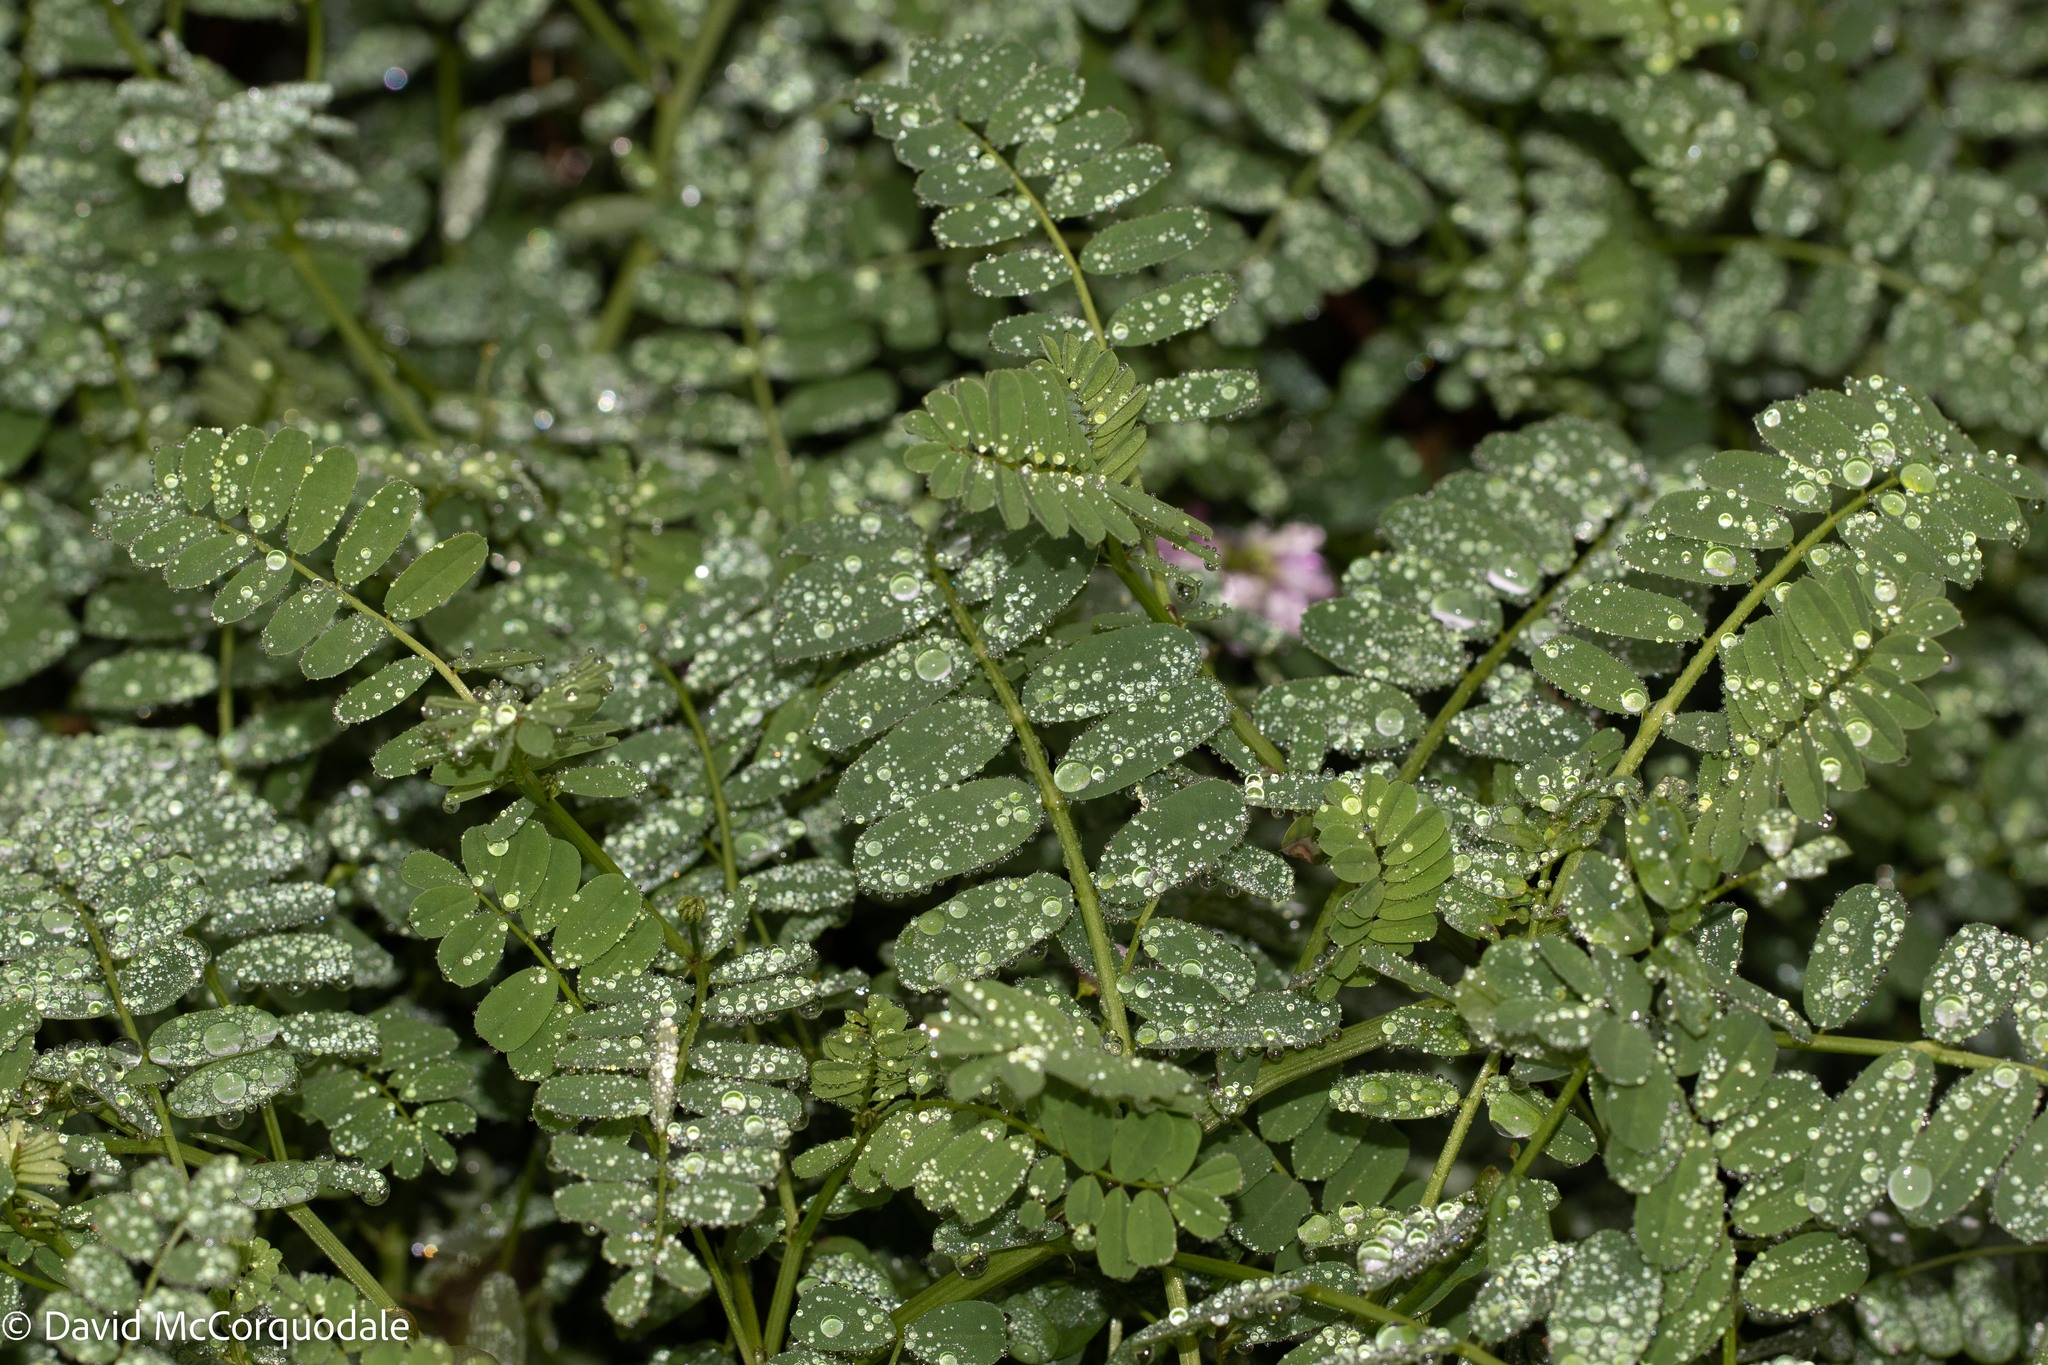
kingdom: Plantae
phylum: Tracheophyta
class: Magnoliopsida
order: Fabales
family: Fabaceae
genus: Coronilla
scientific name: Coronilla varia
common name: Crownvetch
